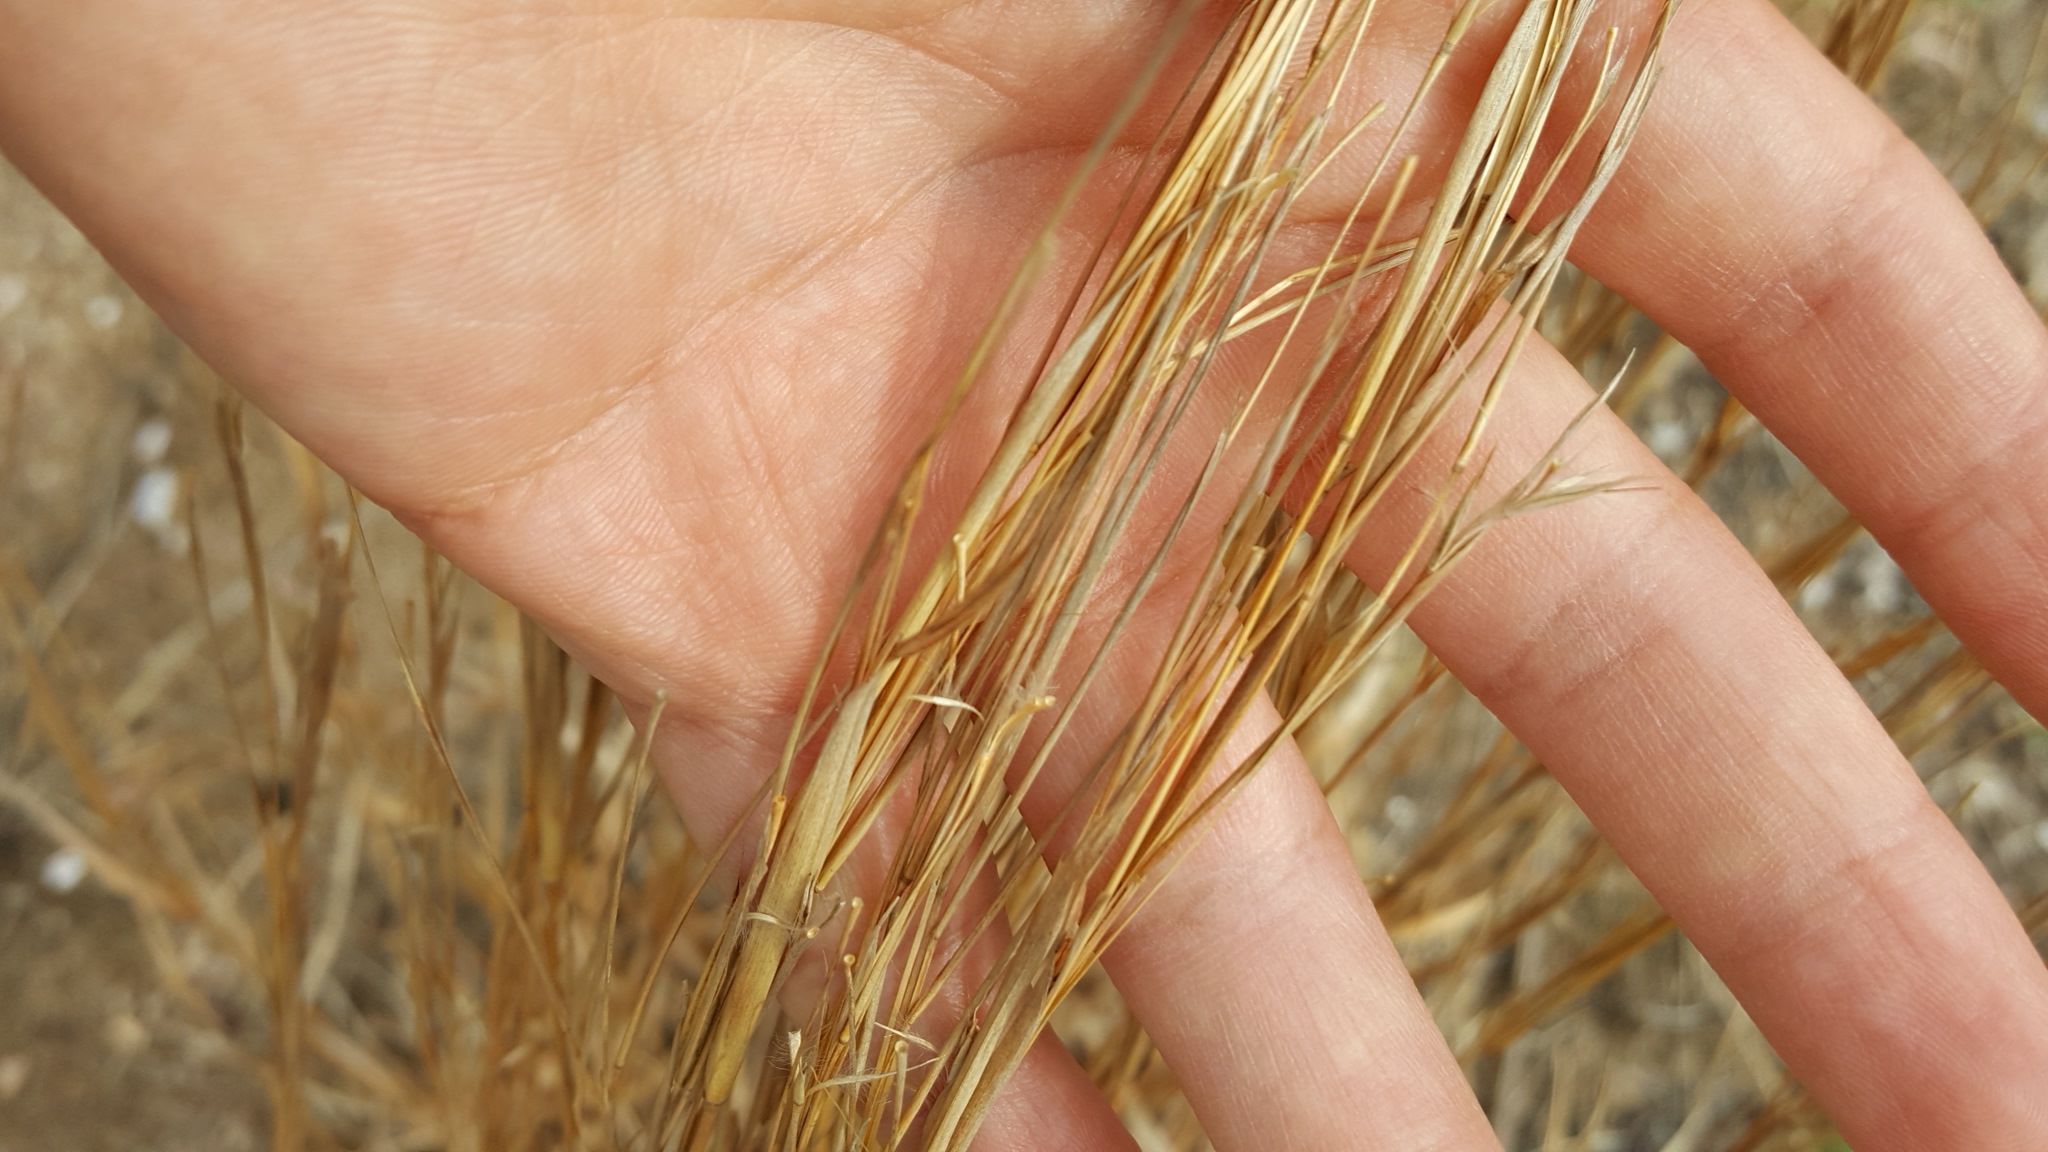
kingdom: Plantae
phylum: Tracheophyta
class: Liliopsida
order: Poales
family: Poaceae
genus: Andropogon
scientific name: Andropogon virginicus
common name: Broomsedge bluestem
